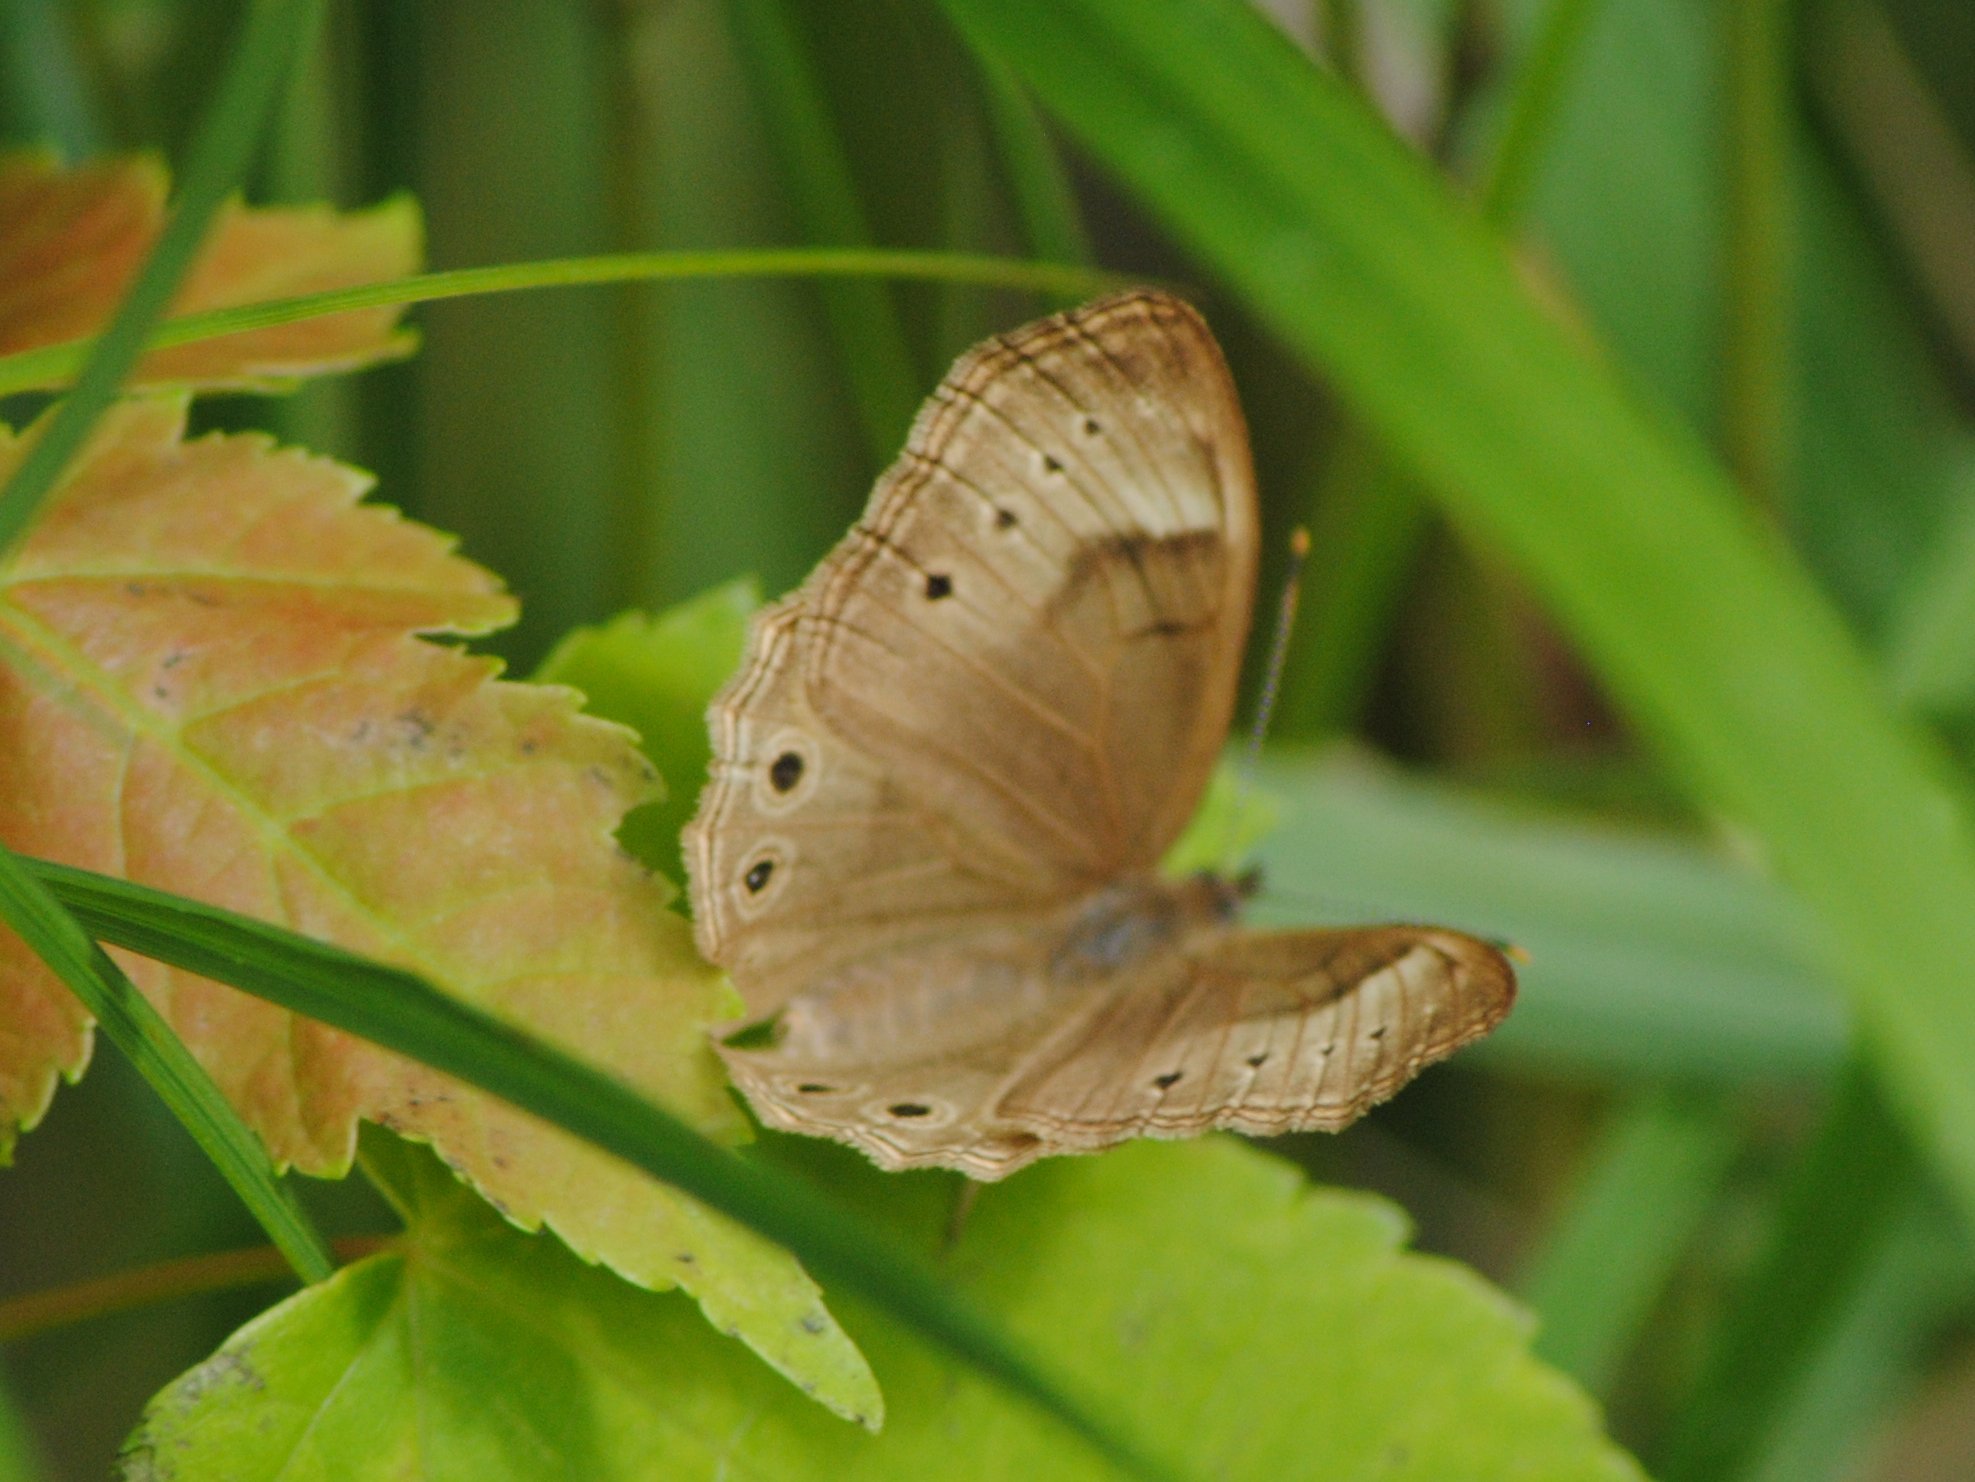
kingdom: Animalia
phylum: Arthropoda
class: Insecta
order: Lepidoptera
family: Nymphalidae
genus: Lethe
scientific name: Lethe eurydice
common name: Eyed brown
